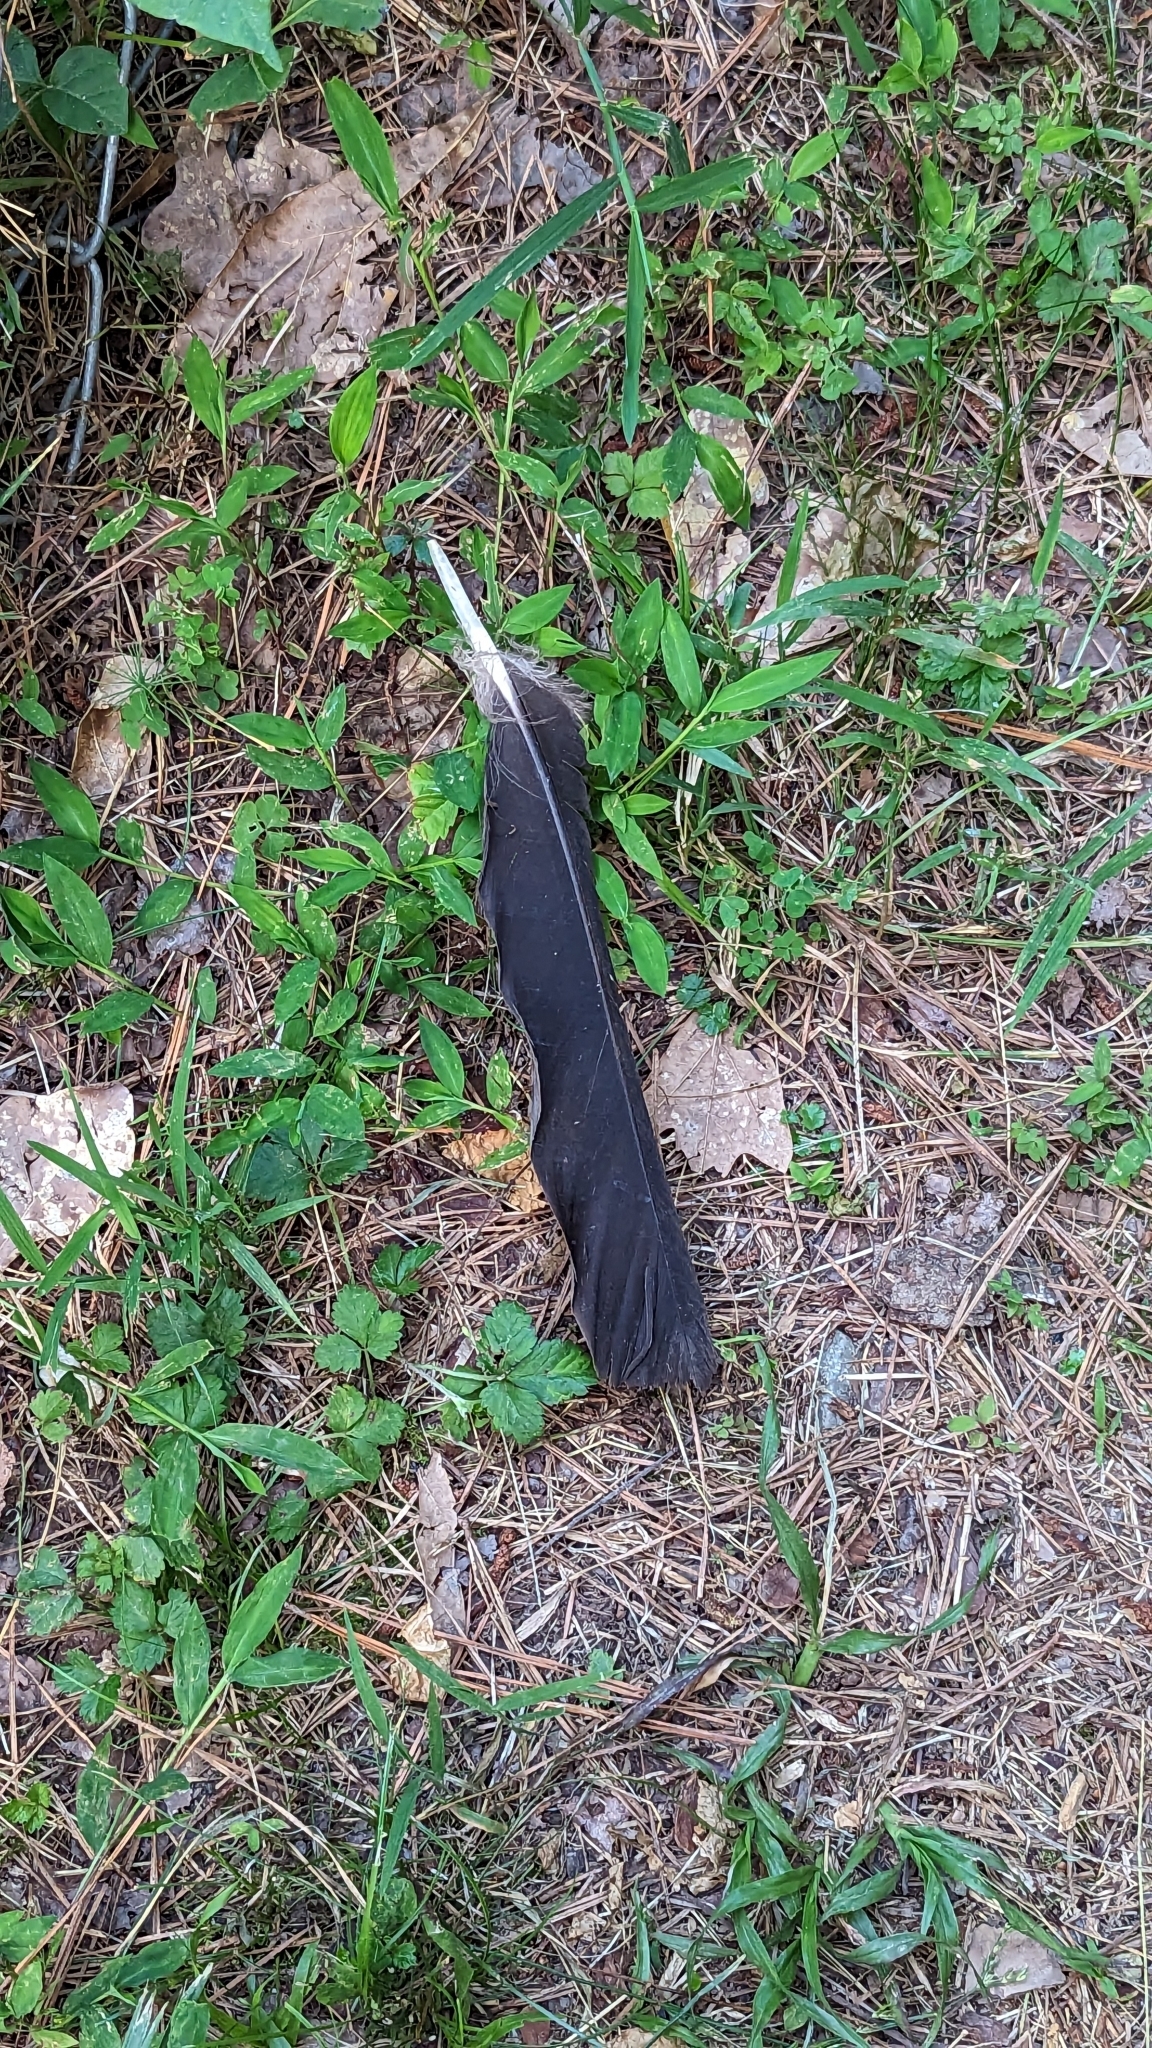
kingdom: Animalia
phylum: Chordata
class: Aves
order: Accipitriformes
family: Cathartidae
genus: Coragyps
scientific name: Coragyps atratus
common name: Black vulture
